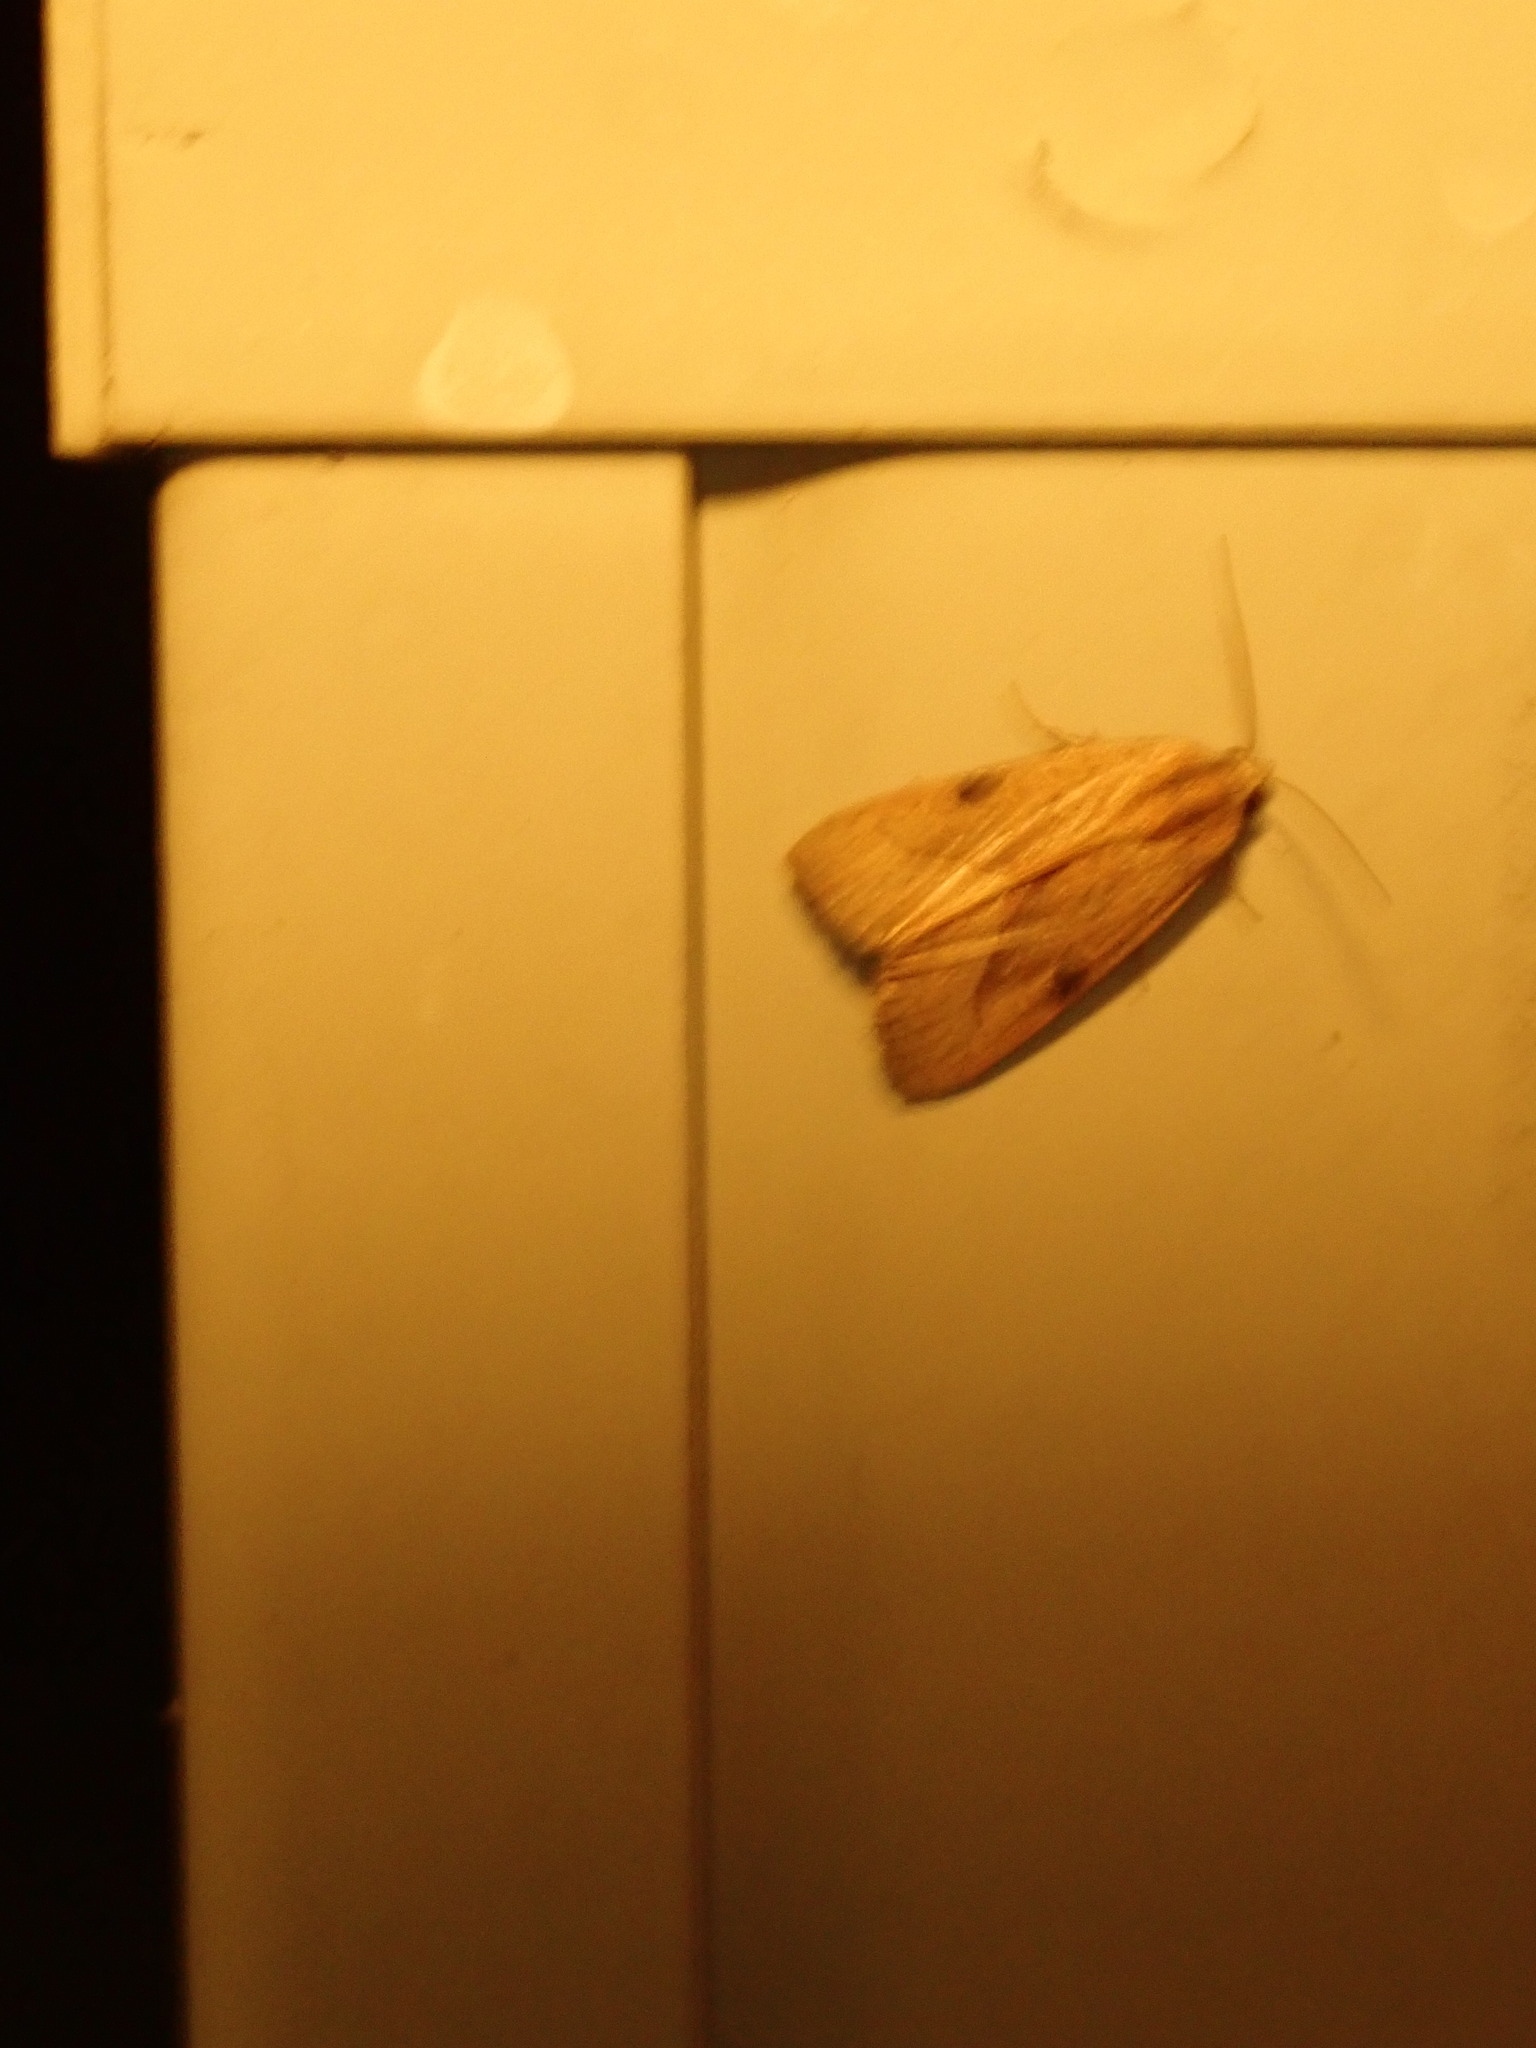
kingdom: Animalia
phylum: Arthropoda
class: Insecta
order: Lepidoptera
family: Noctuidae
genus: Galgula
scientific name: Galgula partita
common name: Wedgeling
